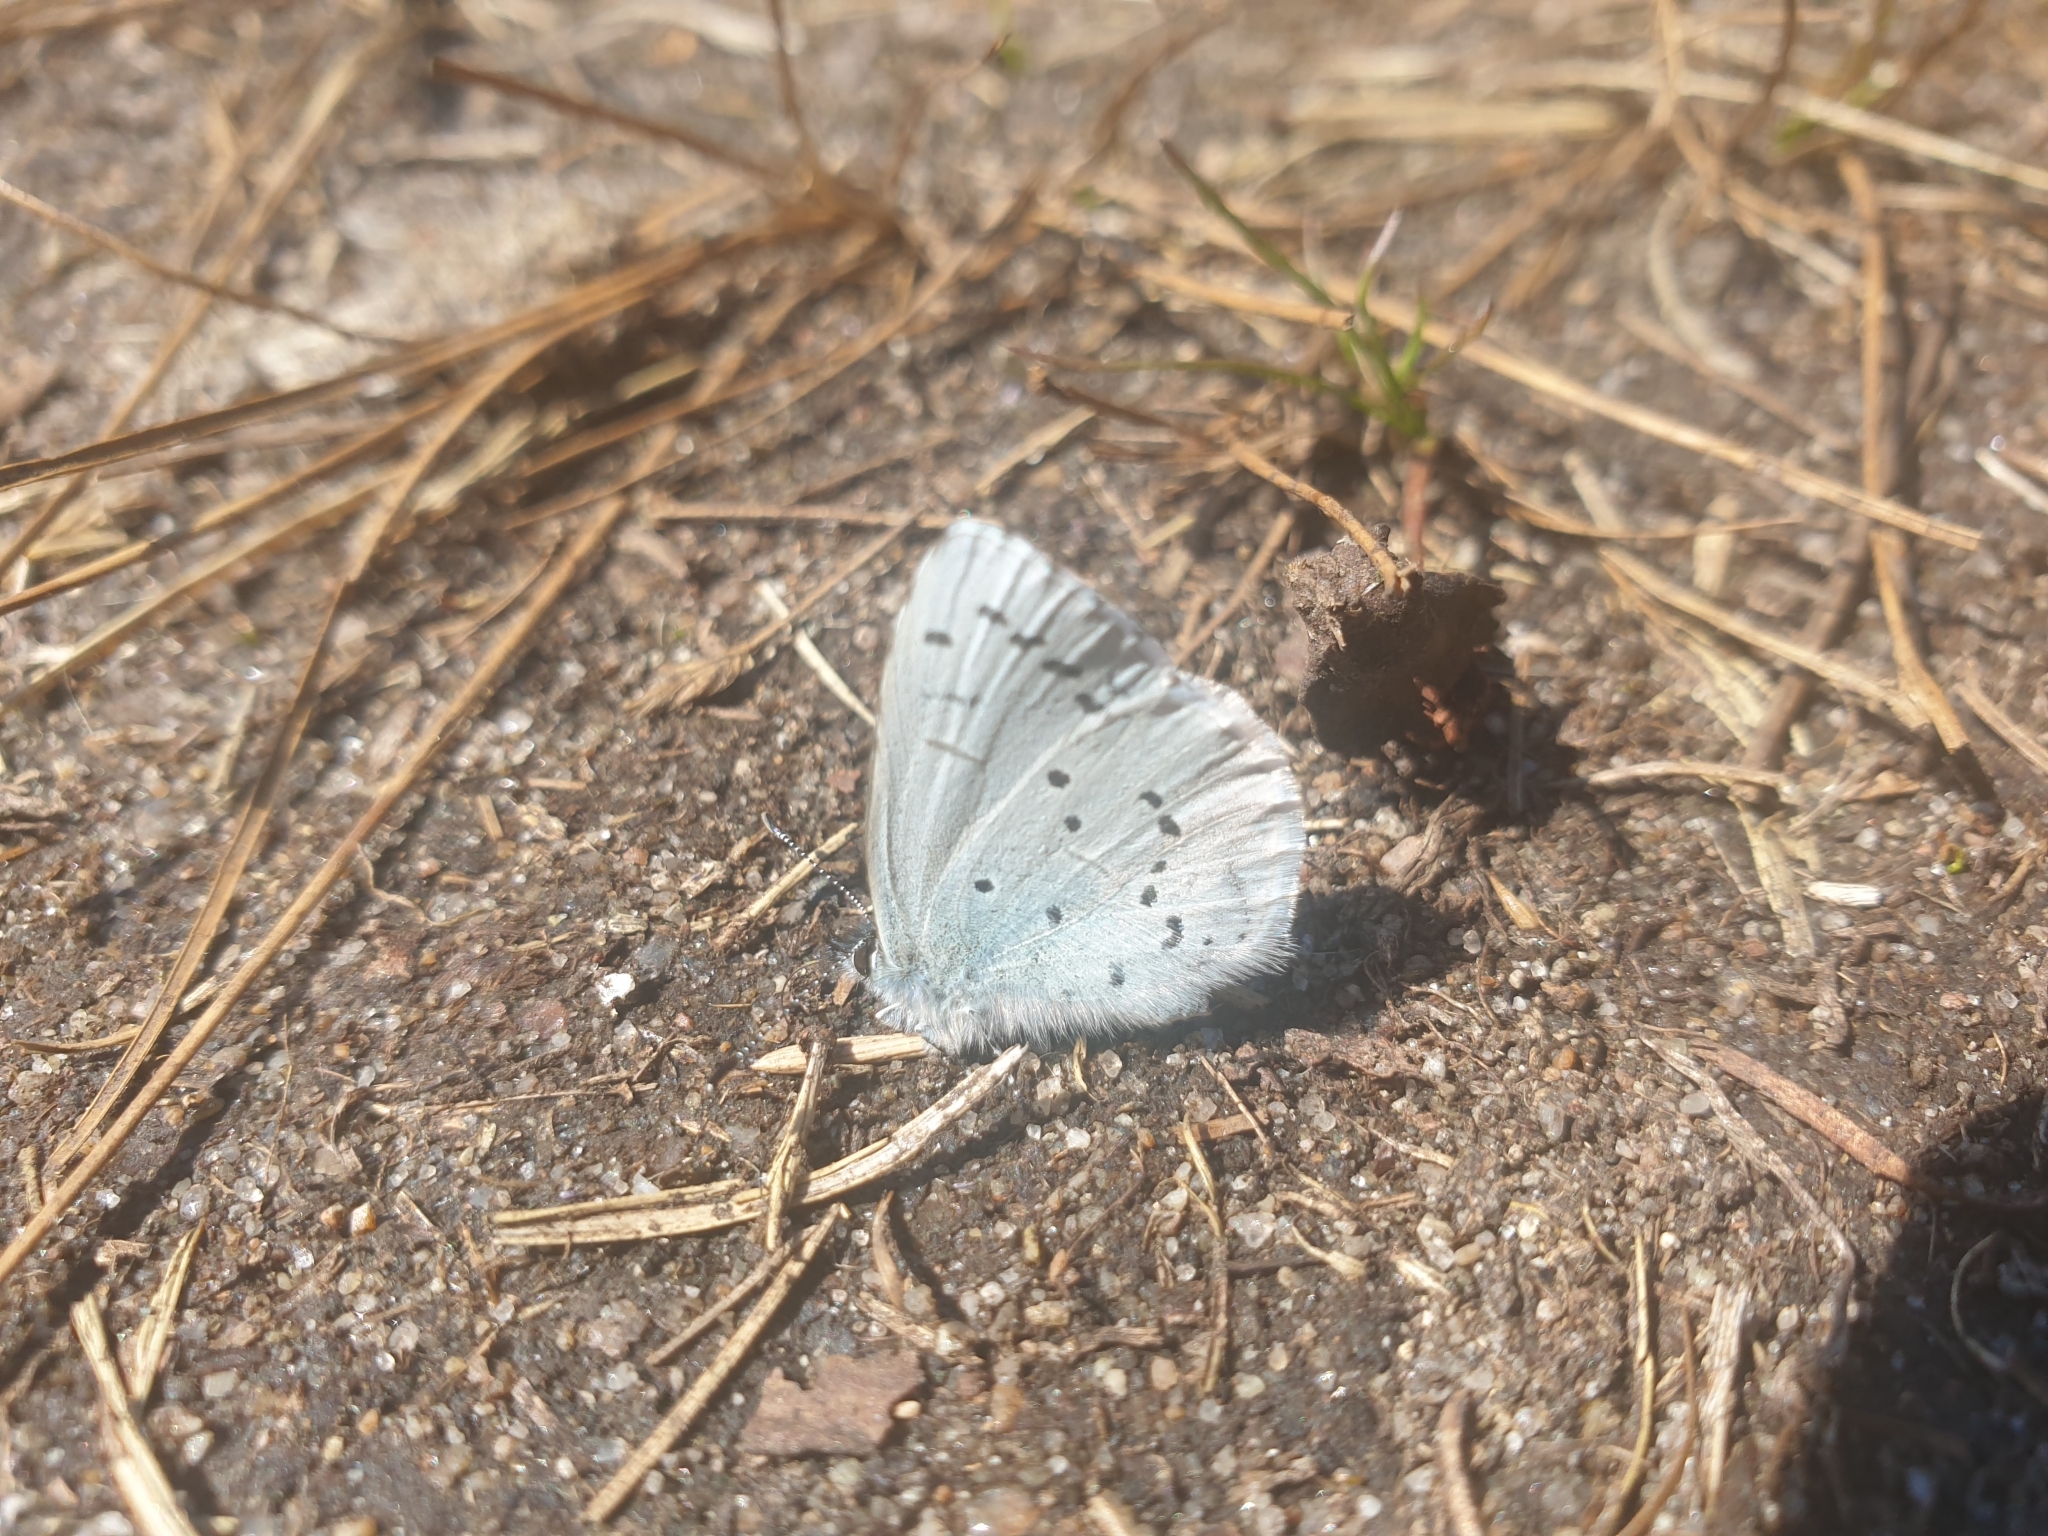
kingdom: Animalia
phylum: Arthropoda
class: Insecta
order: Lepidoptera
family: Lycaenidae
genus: Celastrina
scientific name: Celastrina argiolus
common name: Holly blue
